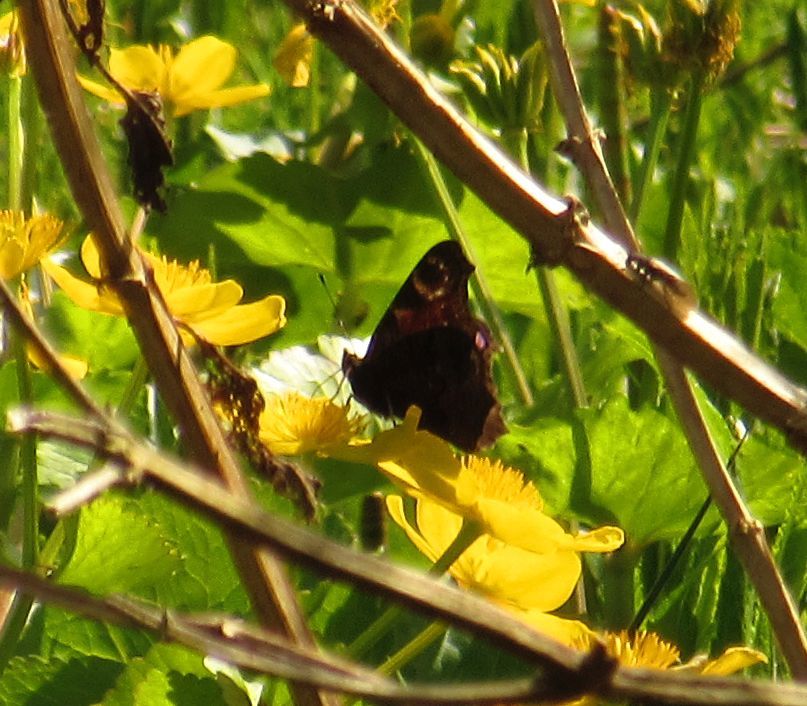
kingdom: Animalia
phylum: Arthropoda
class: Insecta
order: Lepidoptera
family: Nymphalidae
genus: Aglais
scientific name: Aglais io
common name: Peacock
